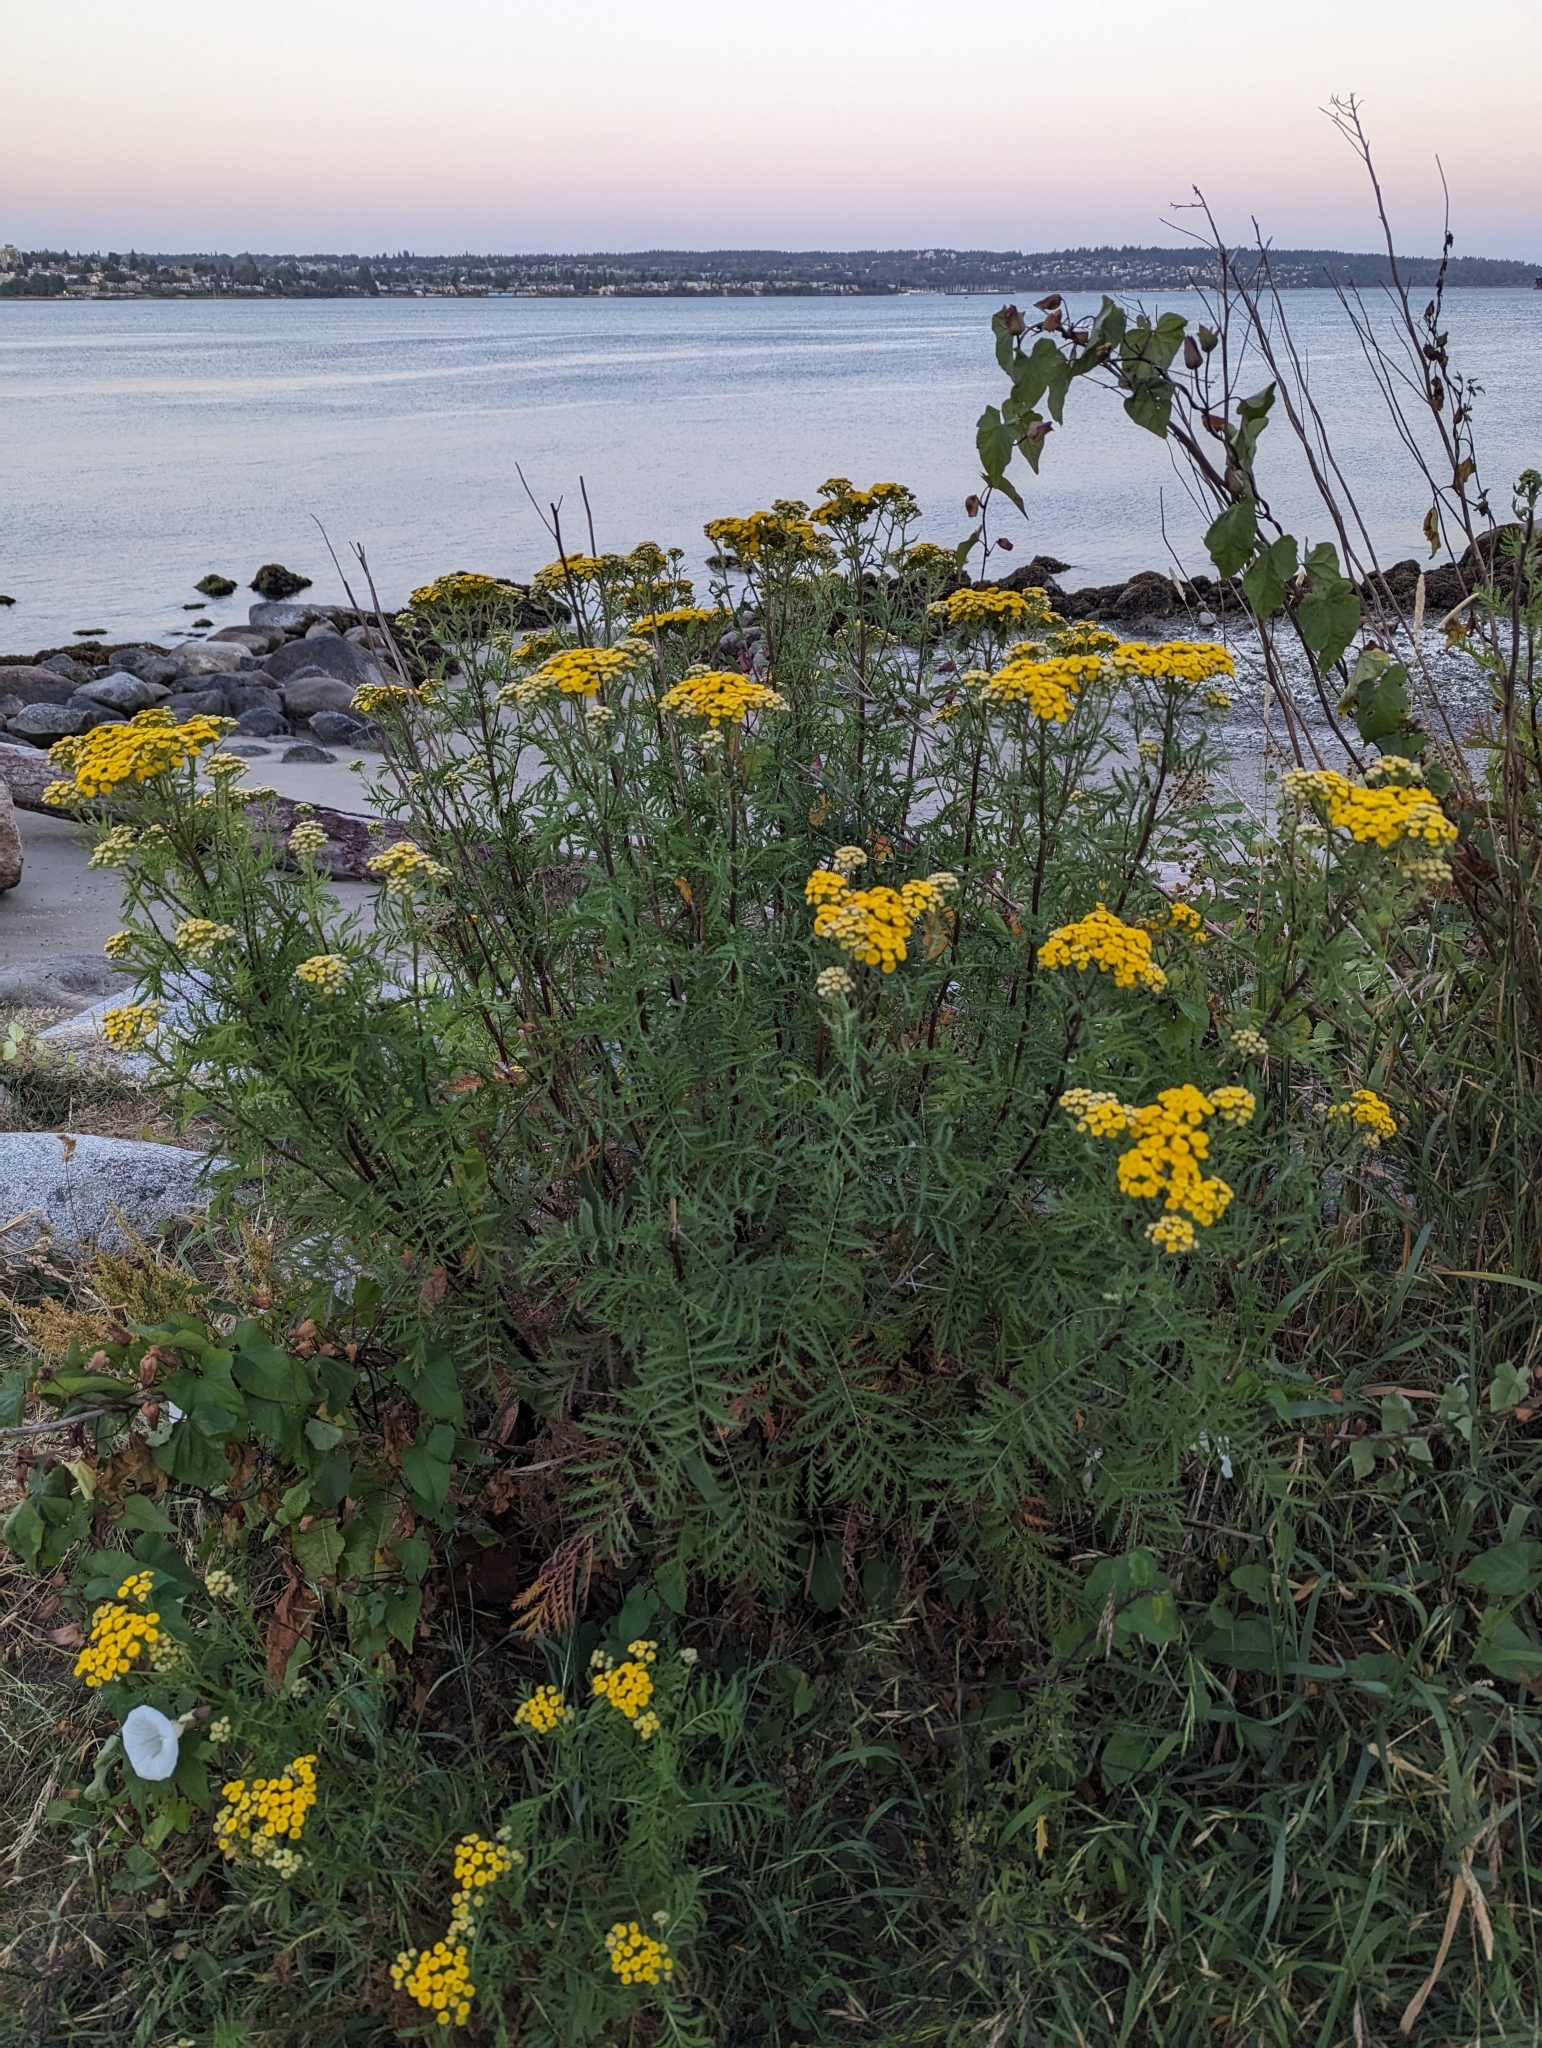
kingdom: Plantae
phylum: Tracheophyta
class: Magnoliopsida
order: Asterales
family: Asteraceae
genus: Tanacetum
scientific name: Tanacetum vulgare
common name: Common tansy
